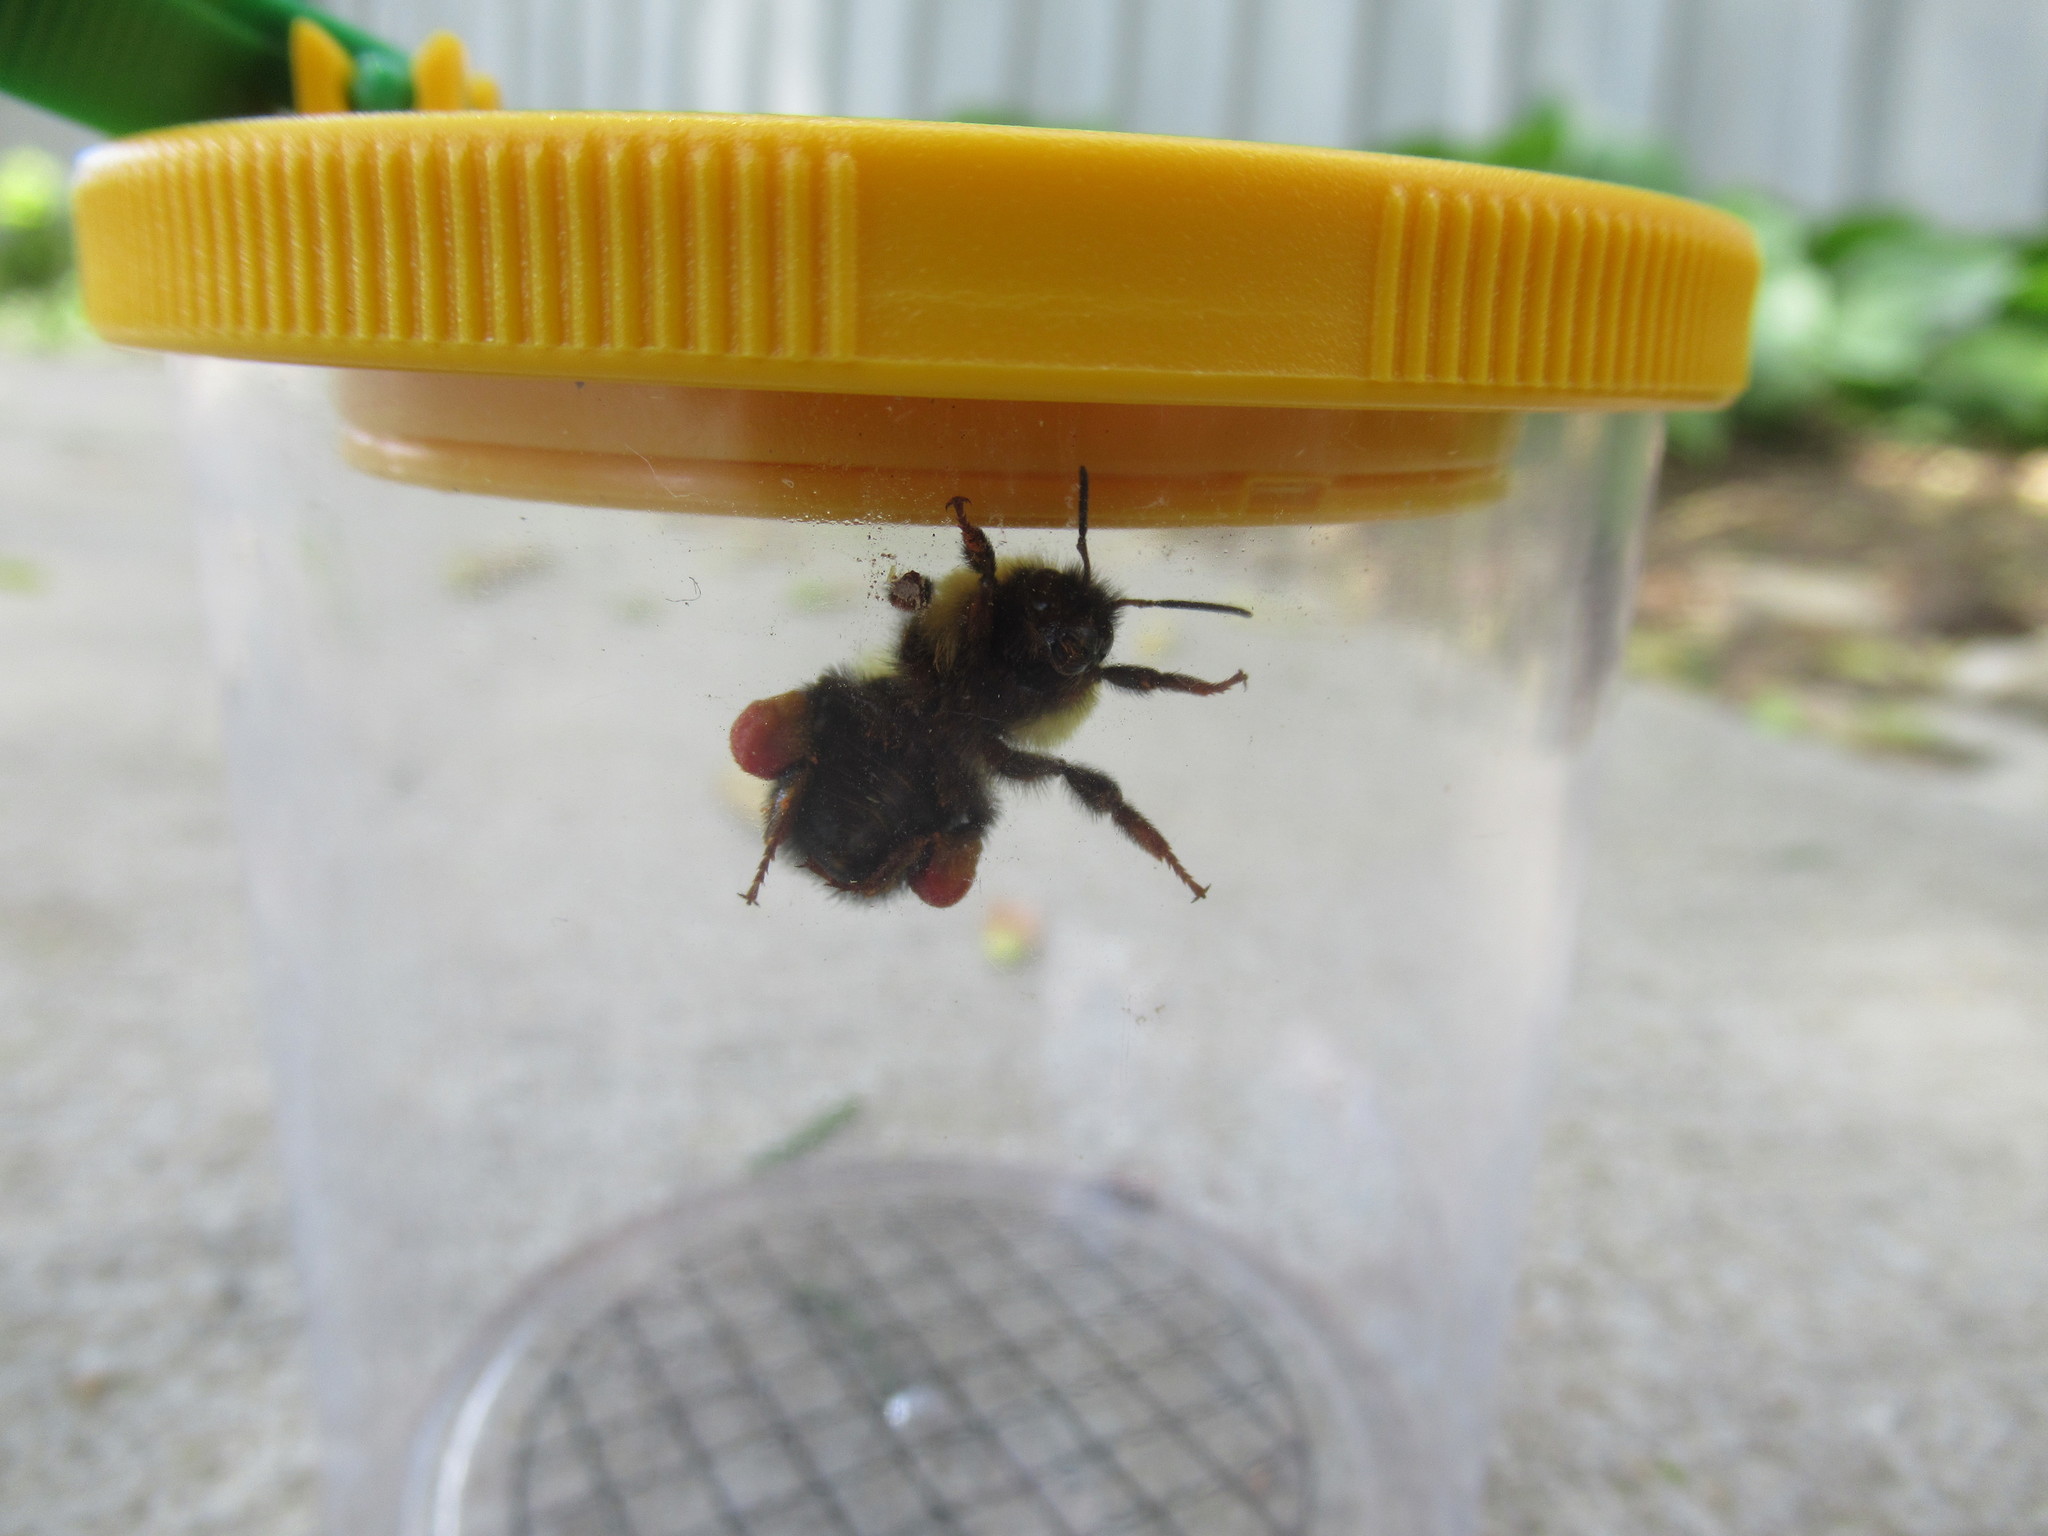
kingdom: Animalia
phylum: Arthropoda
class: Insecta
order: Hymenoptera
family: Apidae
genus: Bombus
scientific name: Bombus bimaculatus
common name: Two-spotted bumble bee
